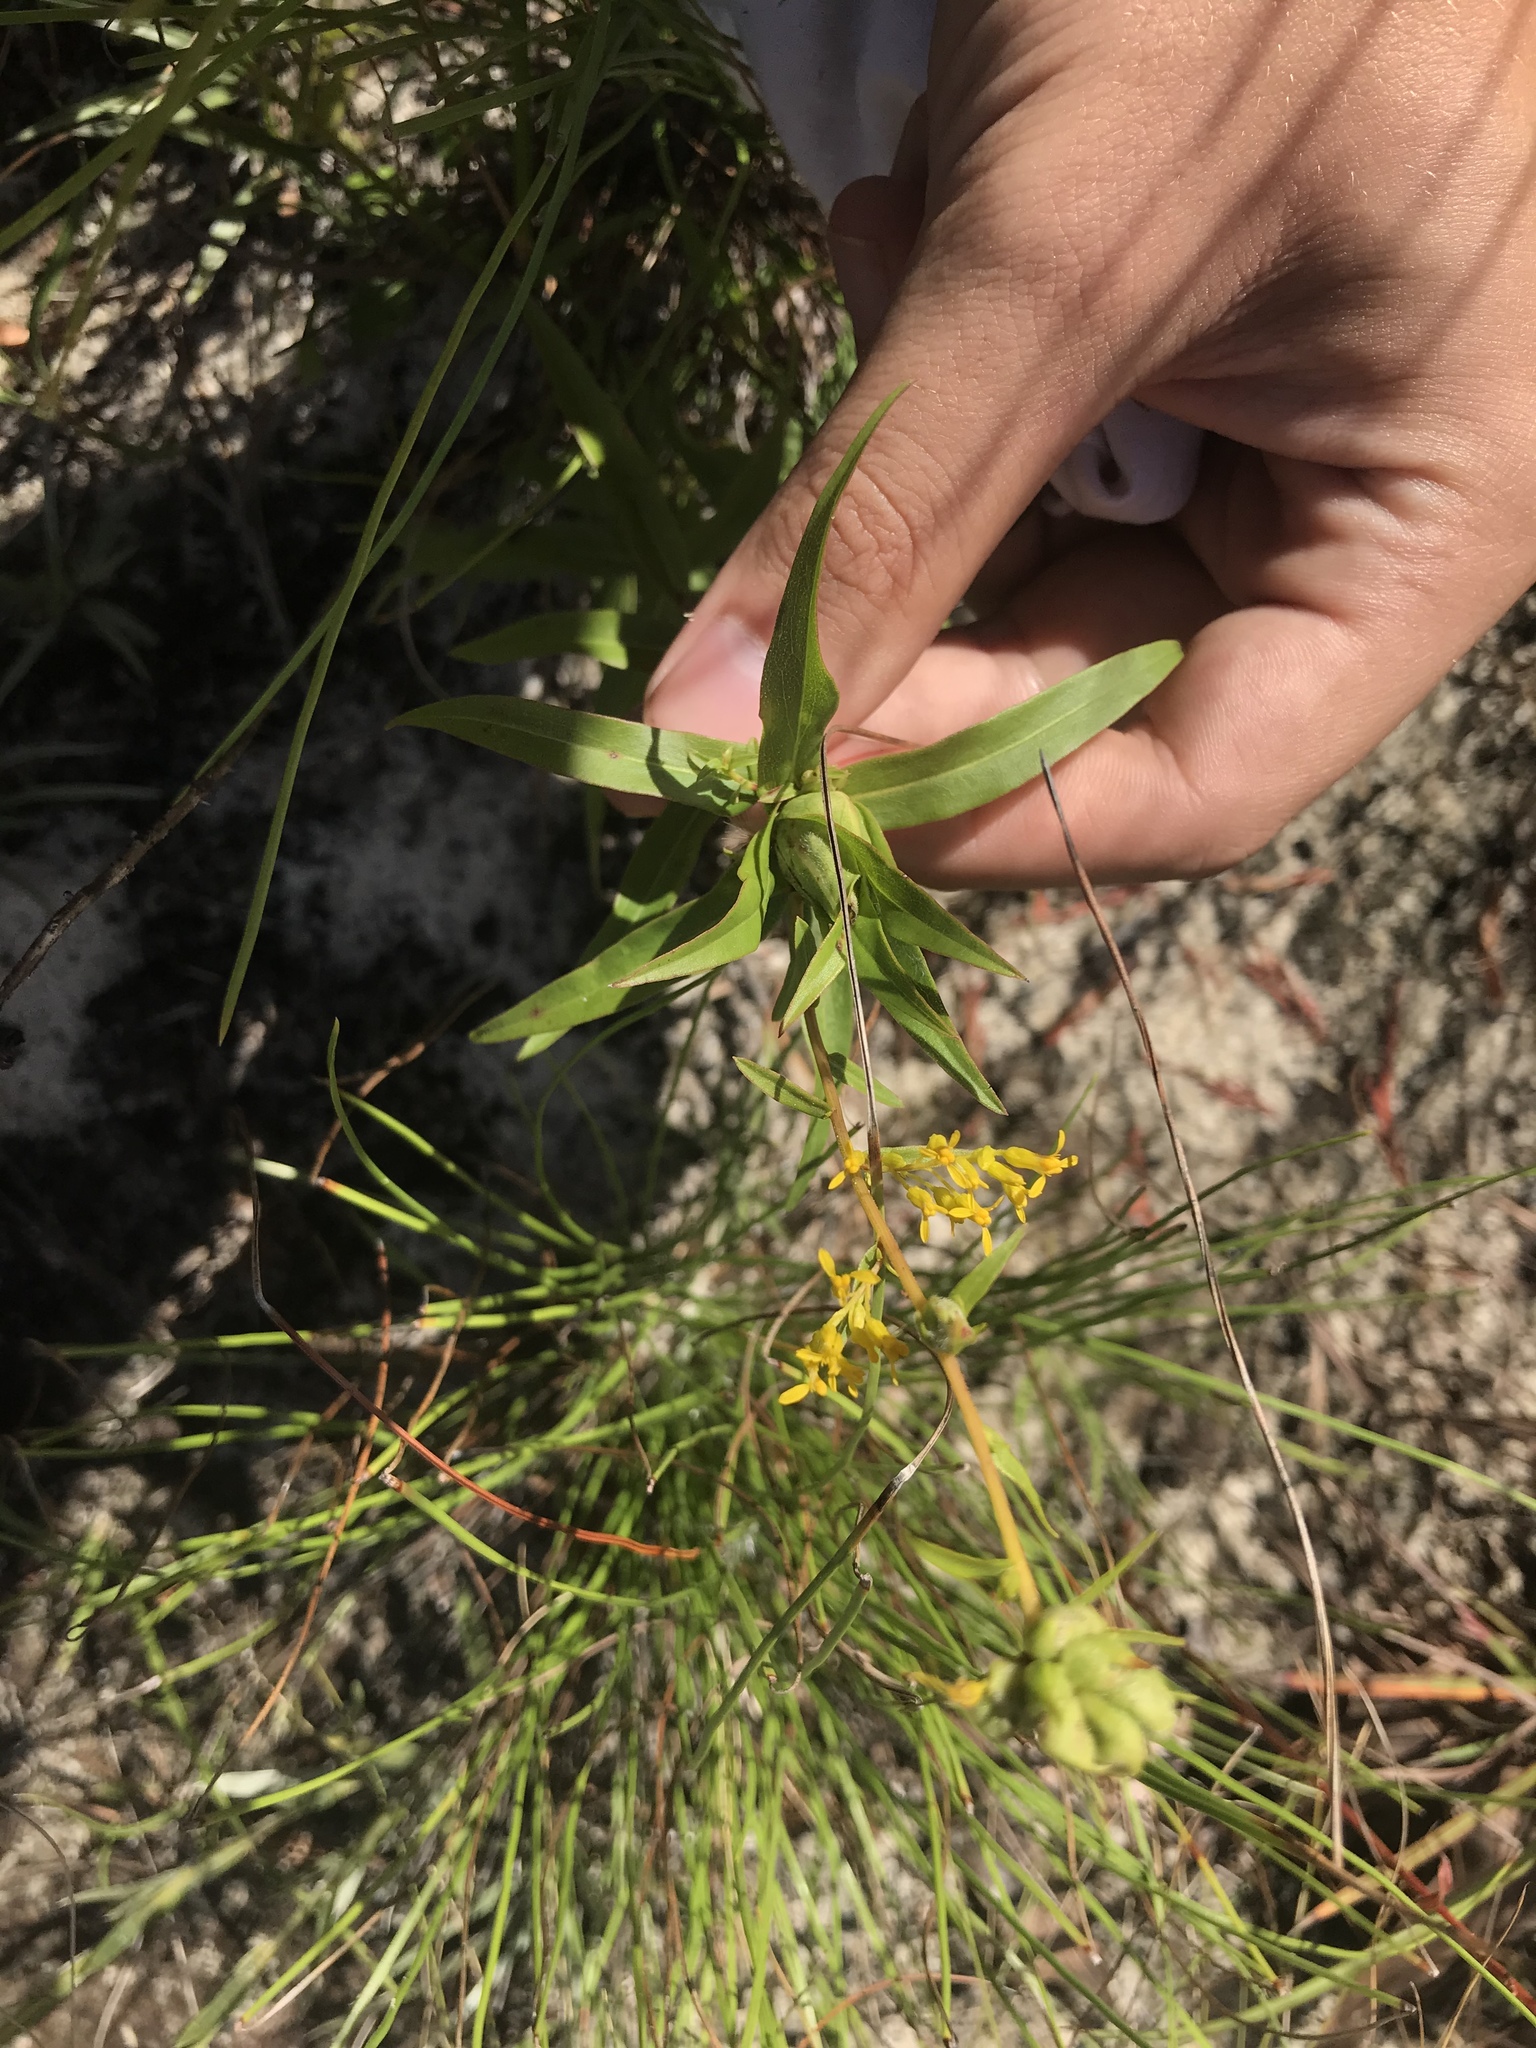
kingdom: Plantae
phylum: Tracheophyta
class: Magnoliopsida
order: Asterales
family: Asteraceae
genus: Solidago
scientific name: Solidago odora
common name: Anise-scented goldenrod
